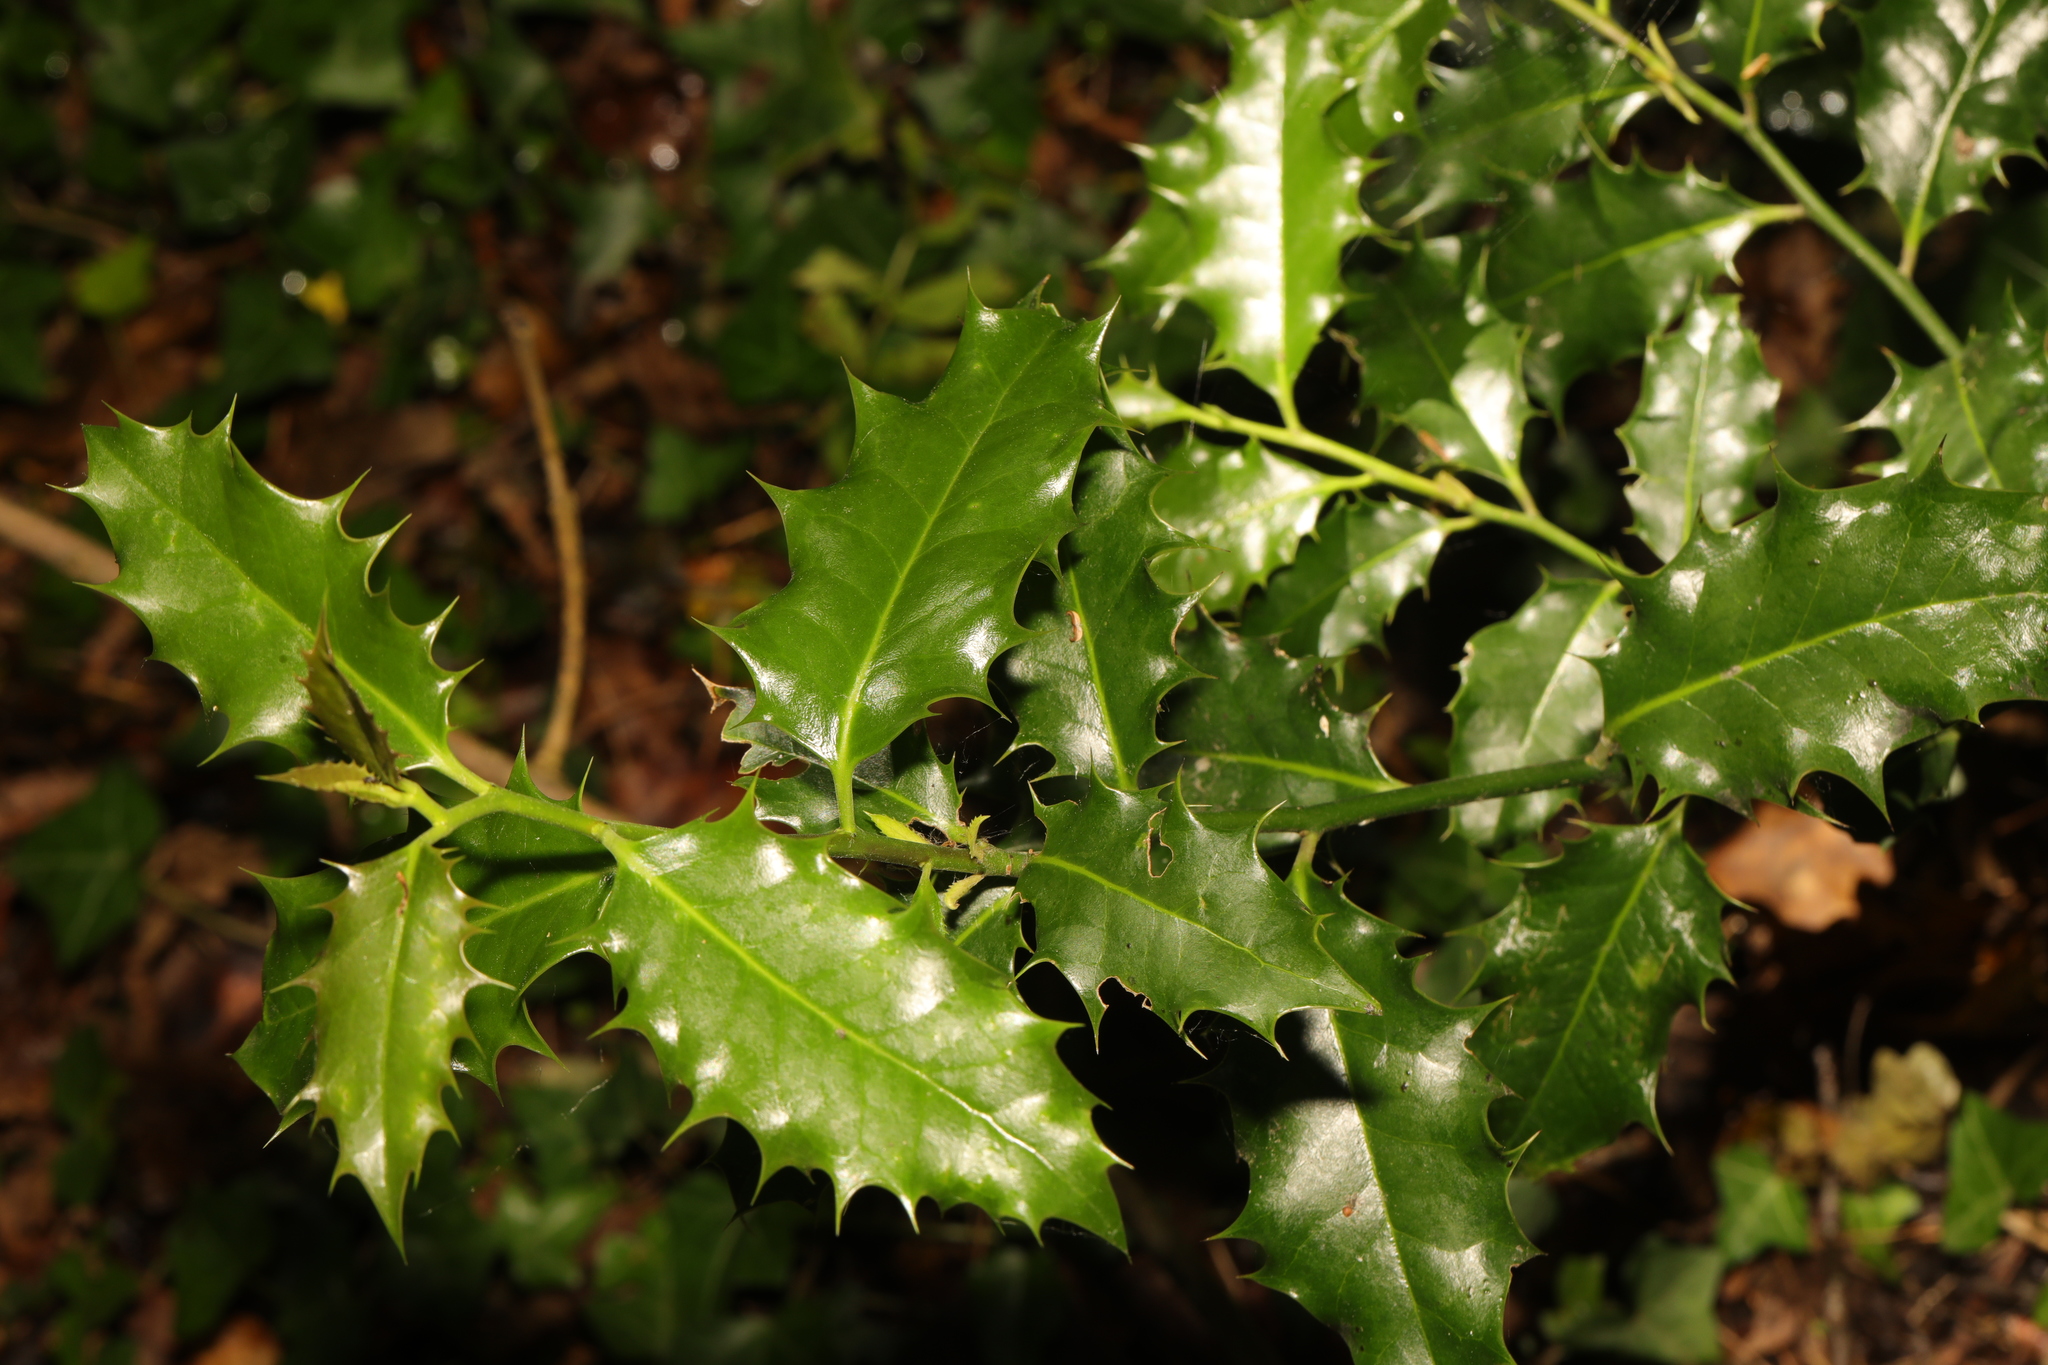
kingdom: Plantae
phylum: Tracheophyta
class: Magnoliopsida
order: Aquifoliales
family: Aquifoliaceae
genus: Ilex
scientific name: Ilex aquifolium
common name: English holly
